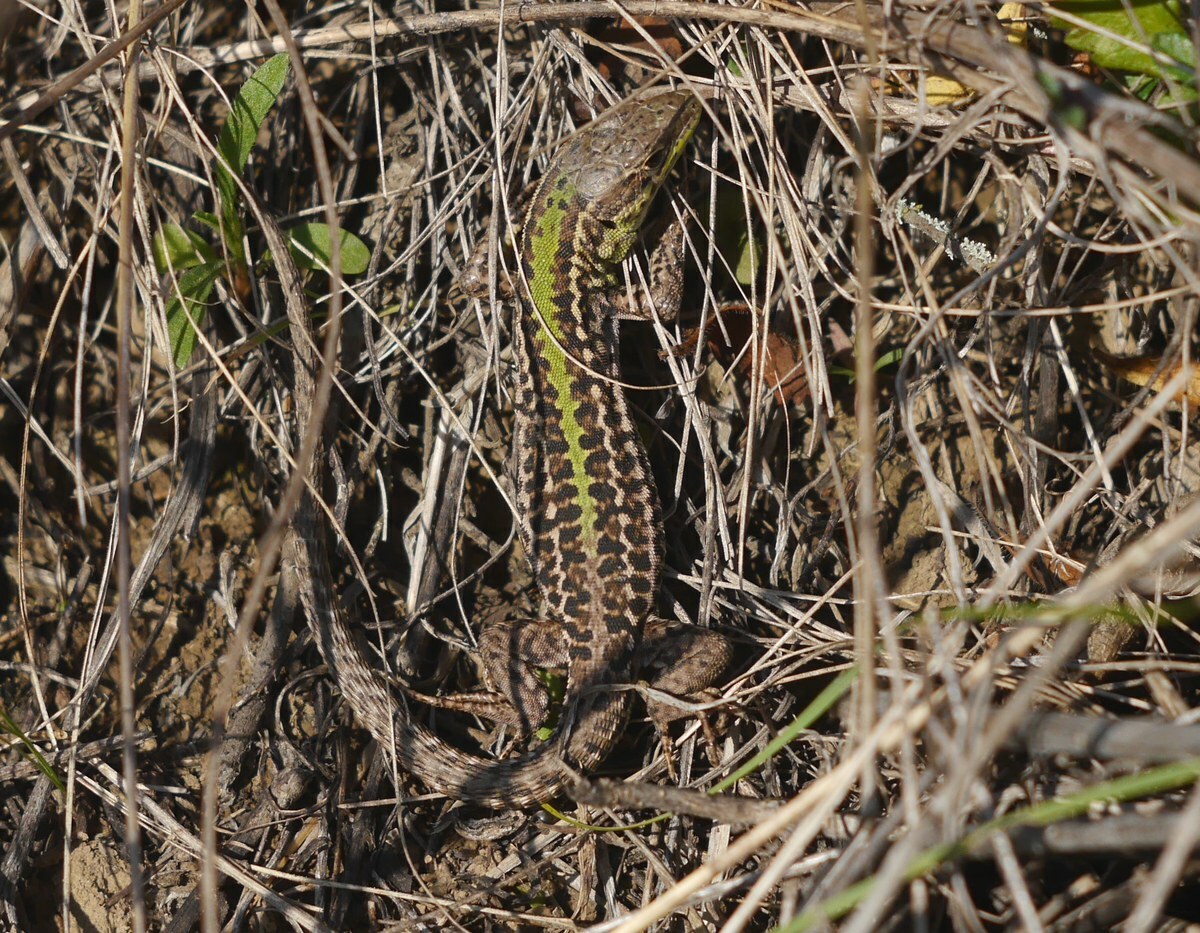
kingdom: Animalia
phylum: Chordata
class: Squamata
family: Lacertidae
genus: Podarcis
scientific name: Podarcis tauricus
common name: Balkan wall lizard
